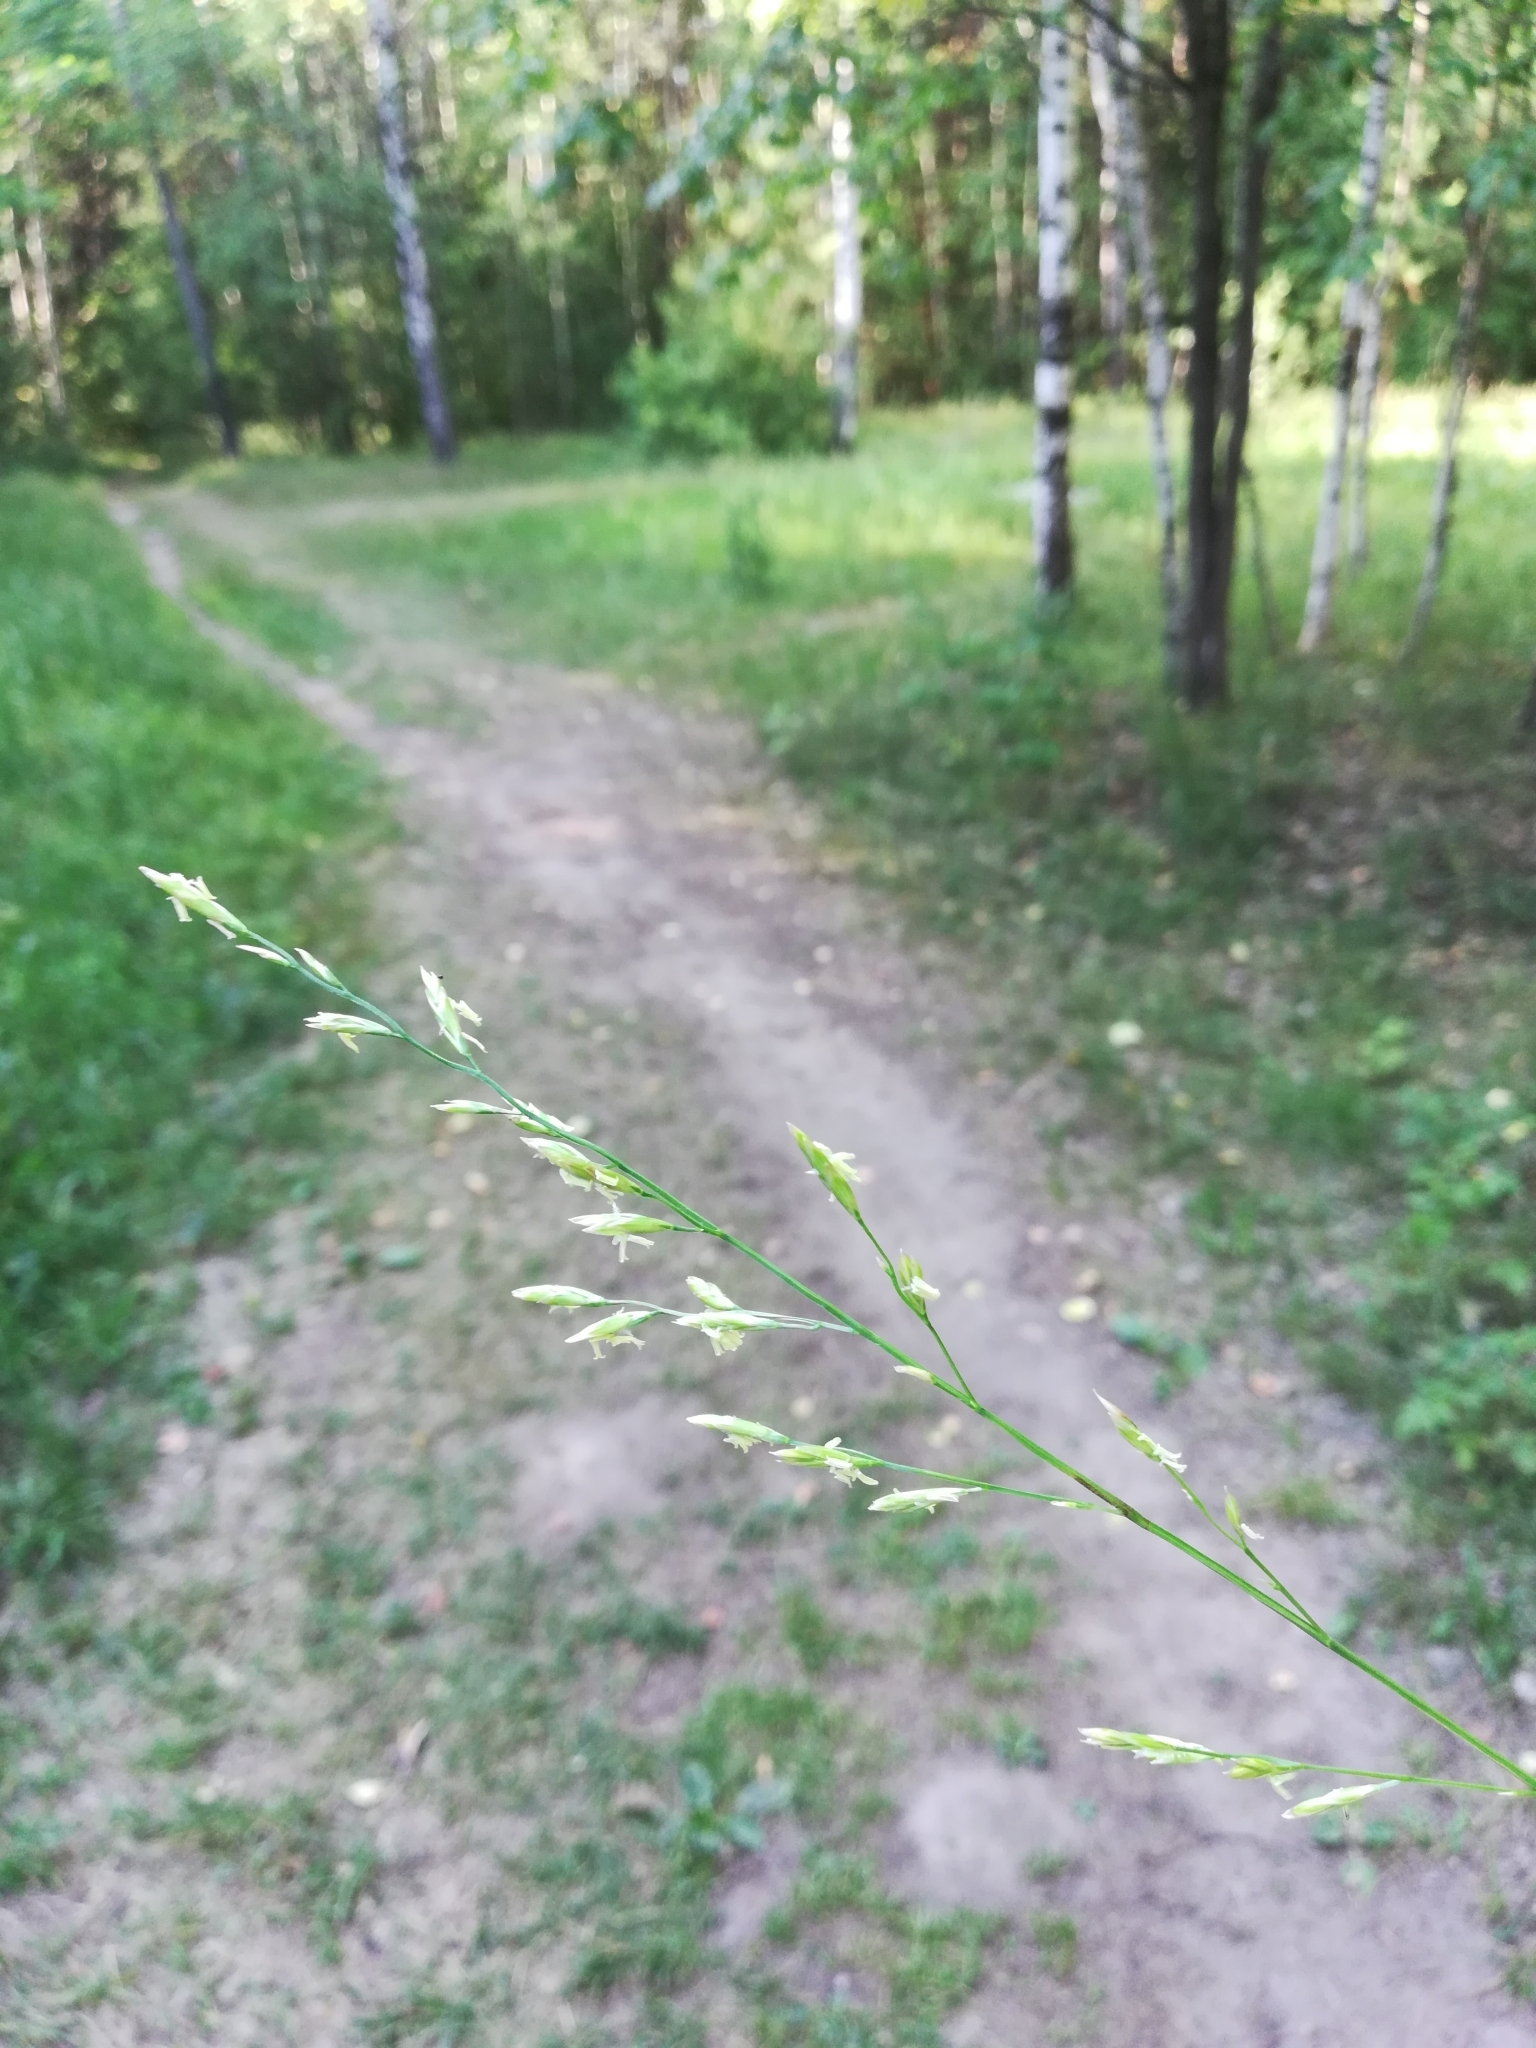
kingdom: Plantae
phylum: Tracheophyta
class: Liliopsida
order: Poales
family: Poaceae
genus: Lolium
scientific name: Lolium pratense
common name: Dover grass
